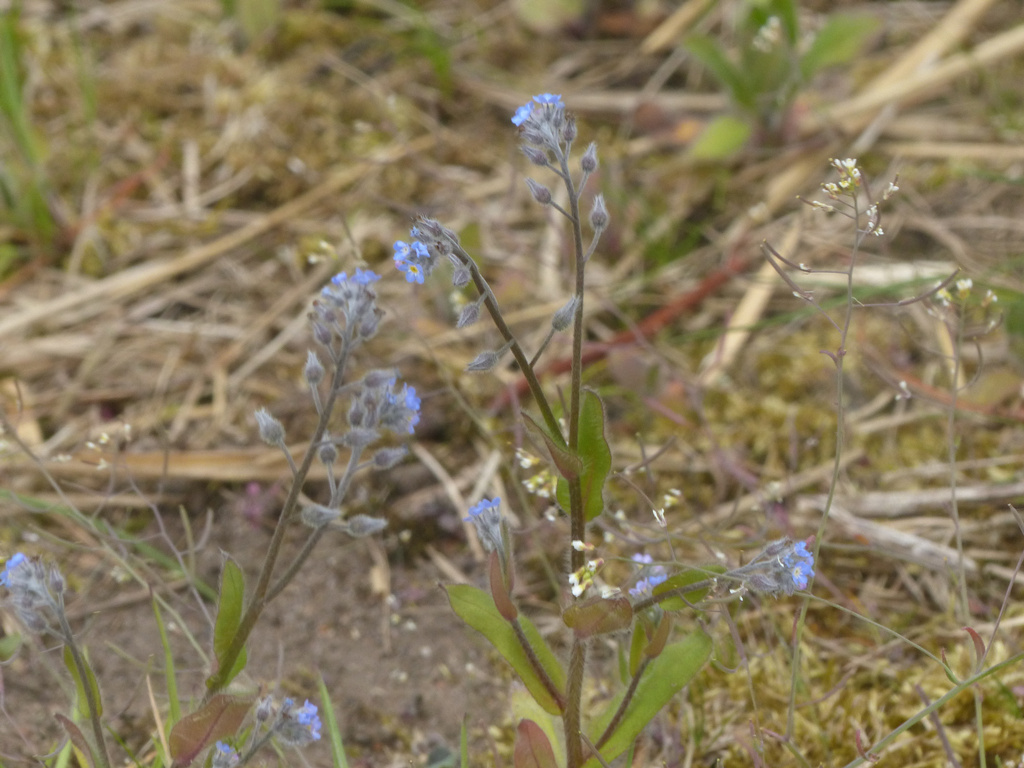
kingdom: Plantae
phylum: Tracheophyta
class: Magnoliopsida
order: Boraginales
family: Boraginaceae
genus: Myosotis
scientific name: Myosotis arvensis
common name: Field forget-me-not
